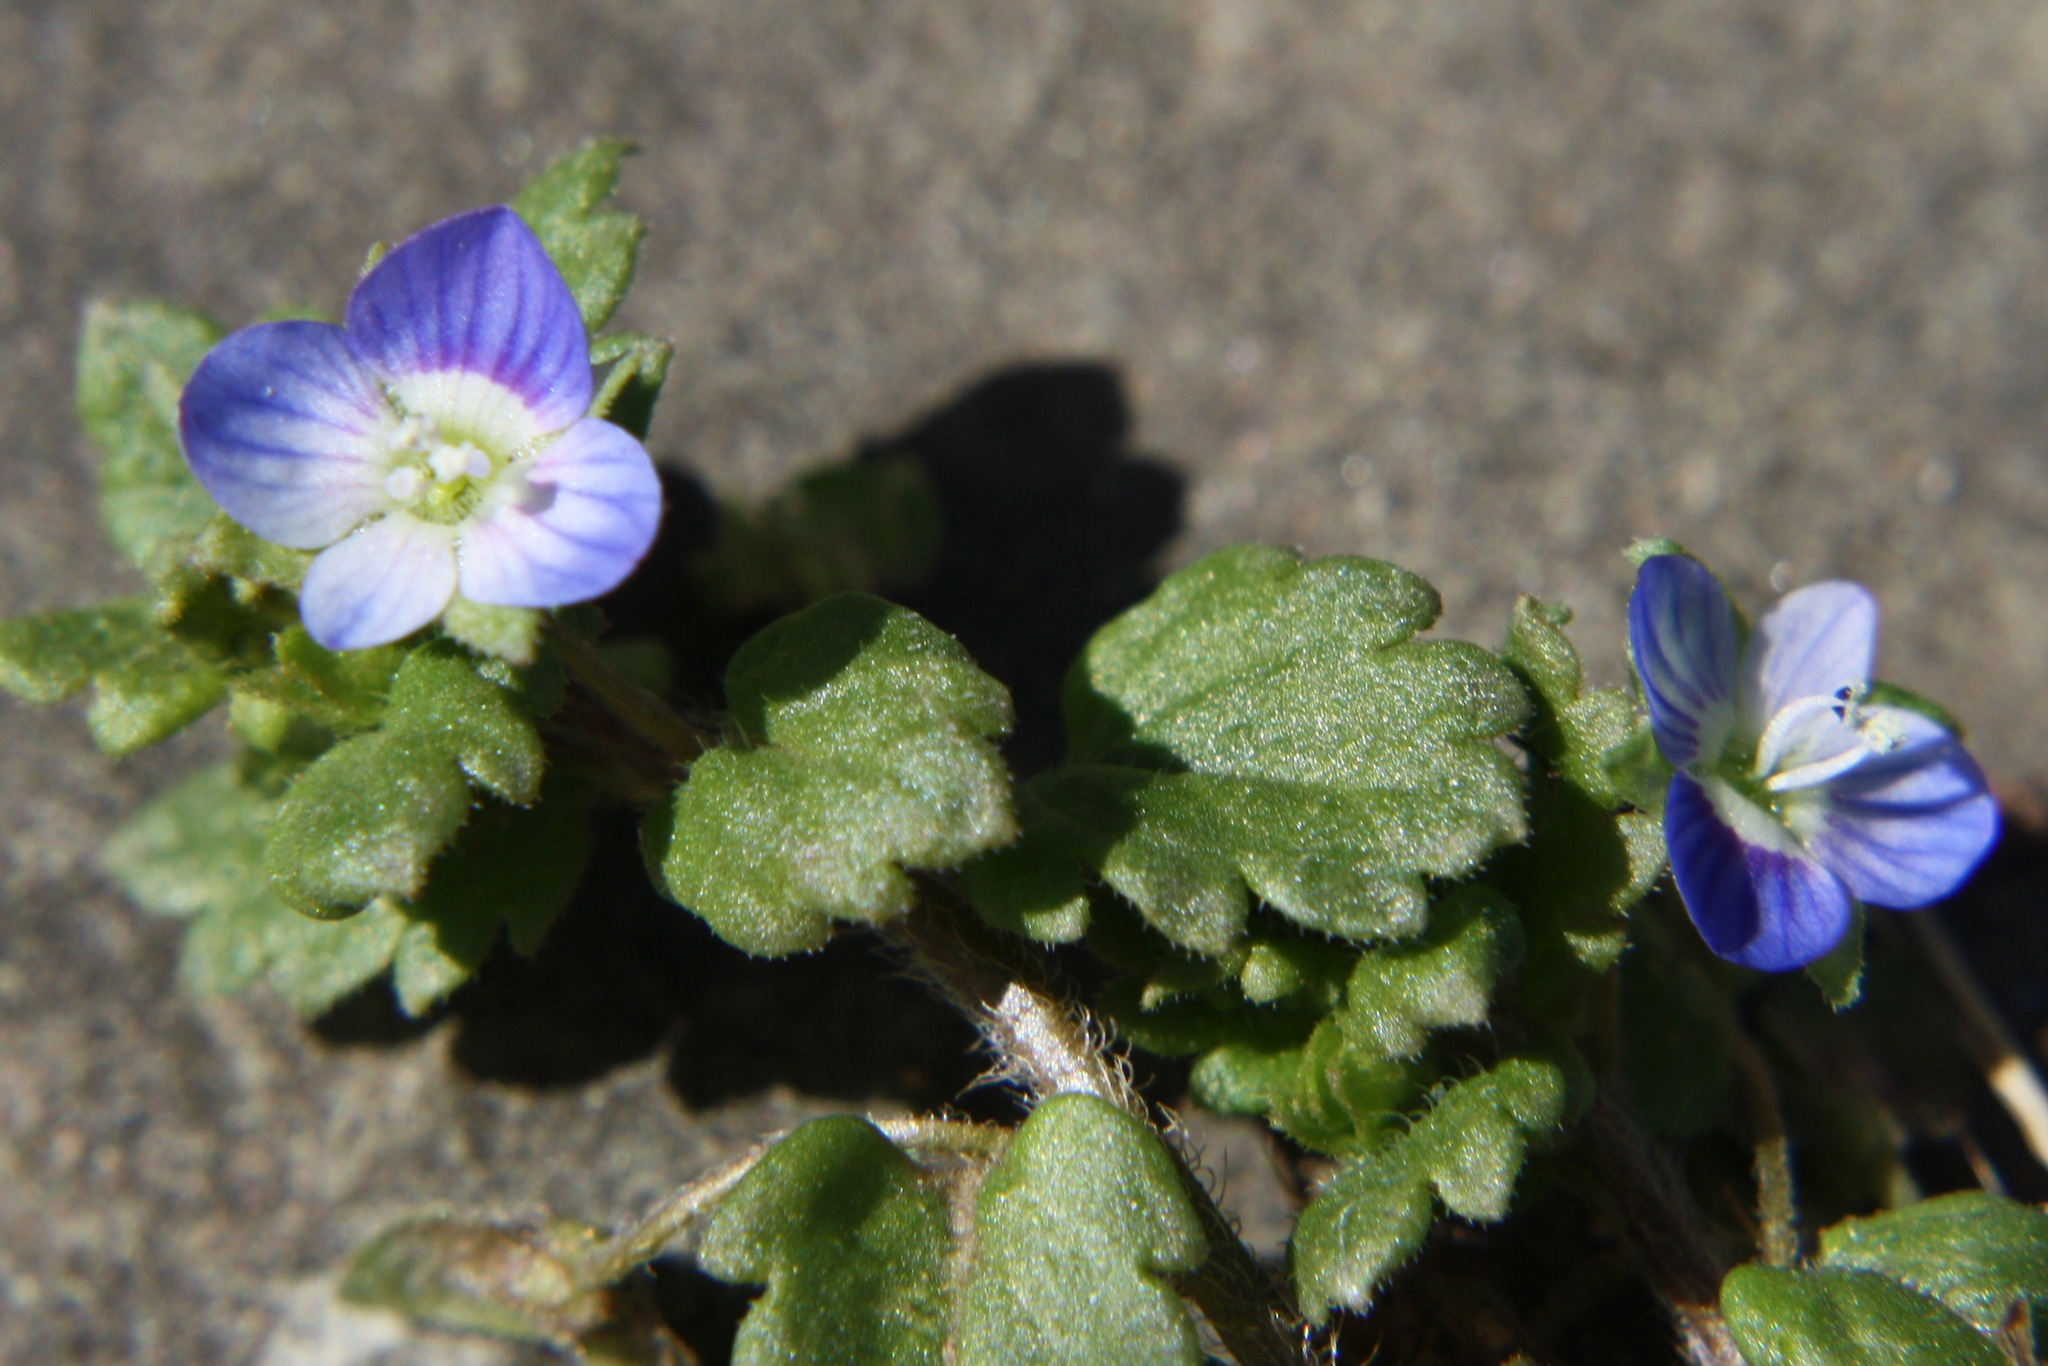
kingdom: Plantae
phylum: Tracheophyta
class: Magnoliopsida
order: Lamiales
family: Plantaginaceae
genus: Veronica
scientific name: Veronica persica
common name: Common field-speedwell
